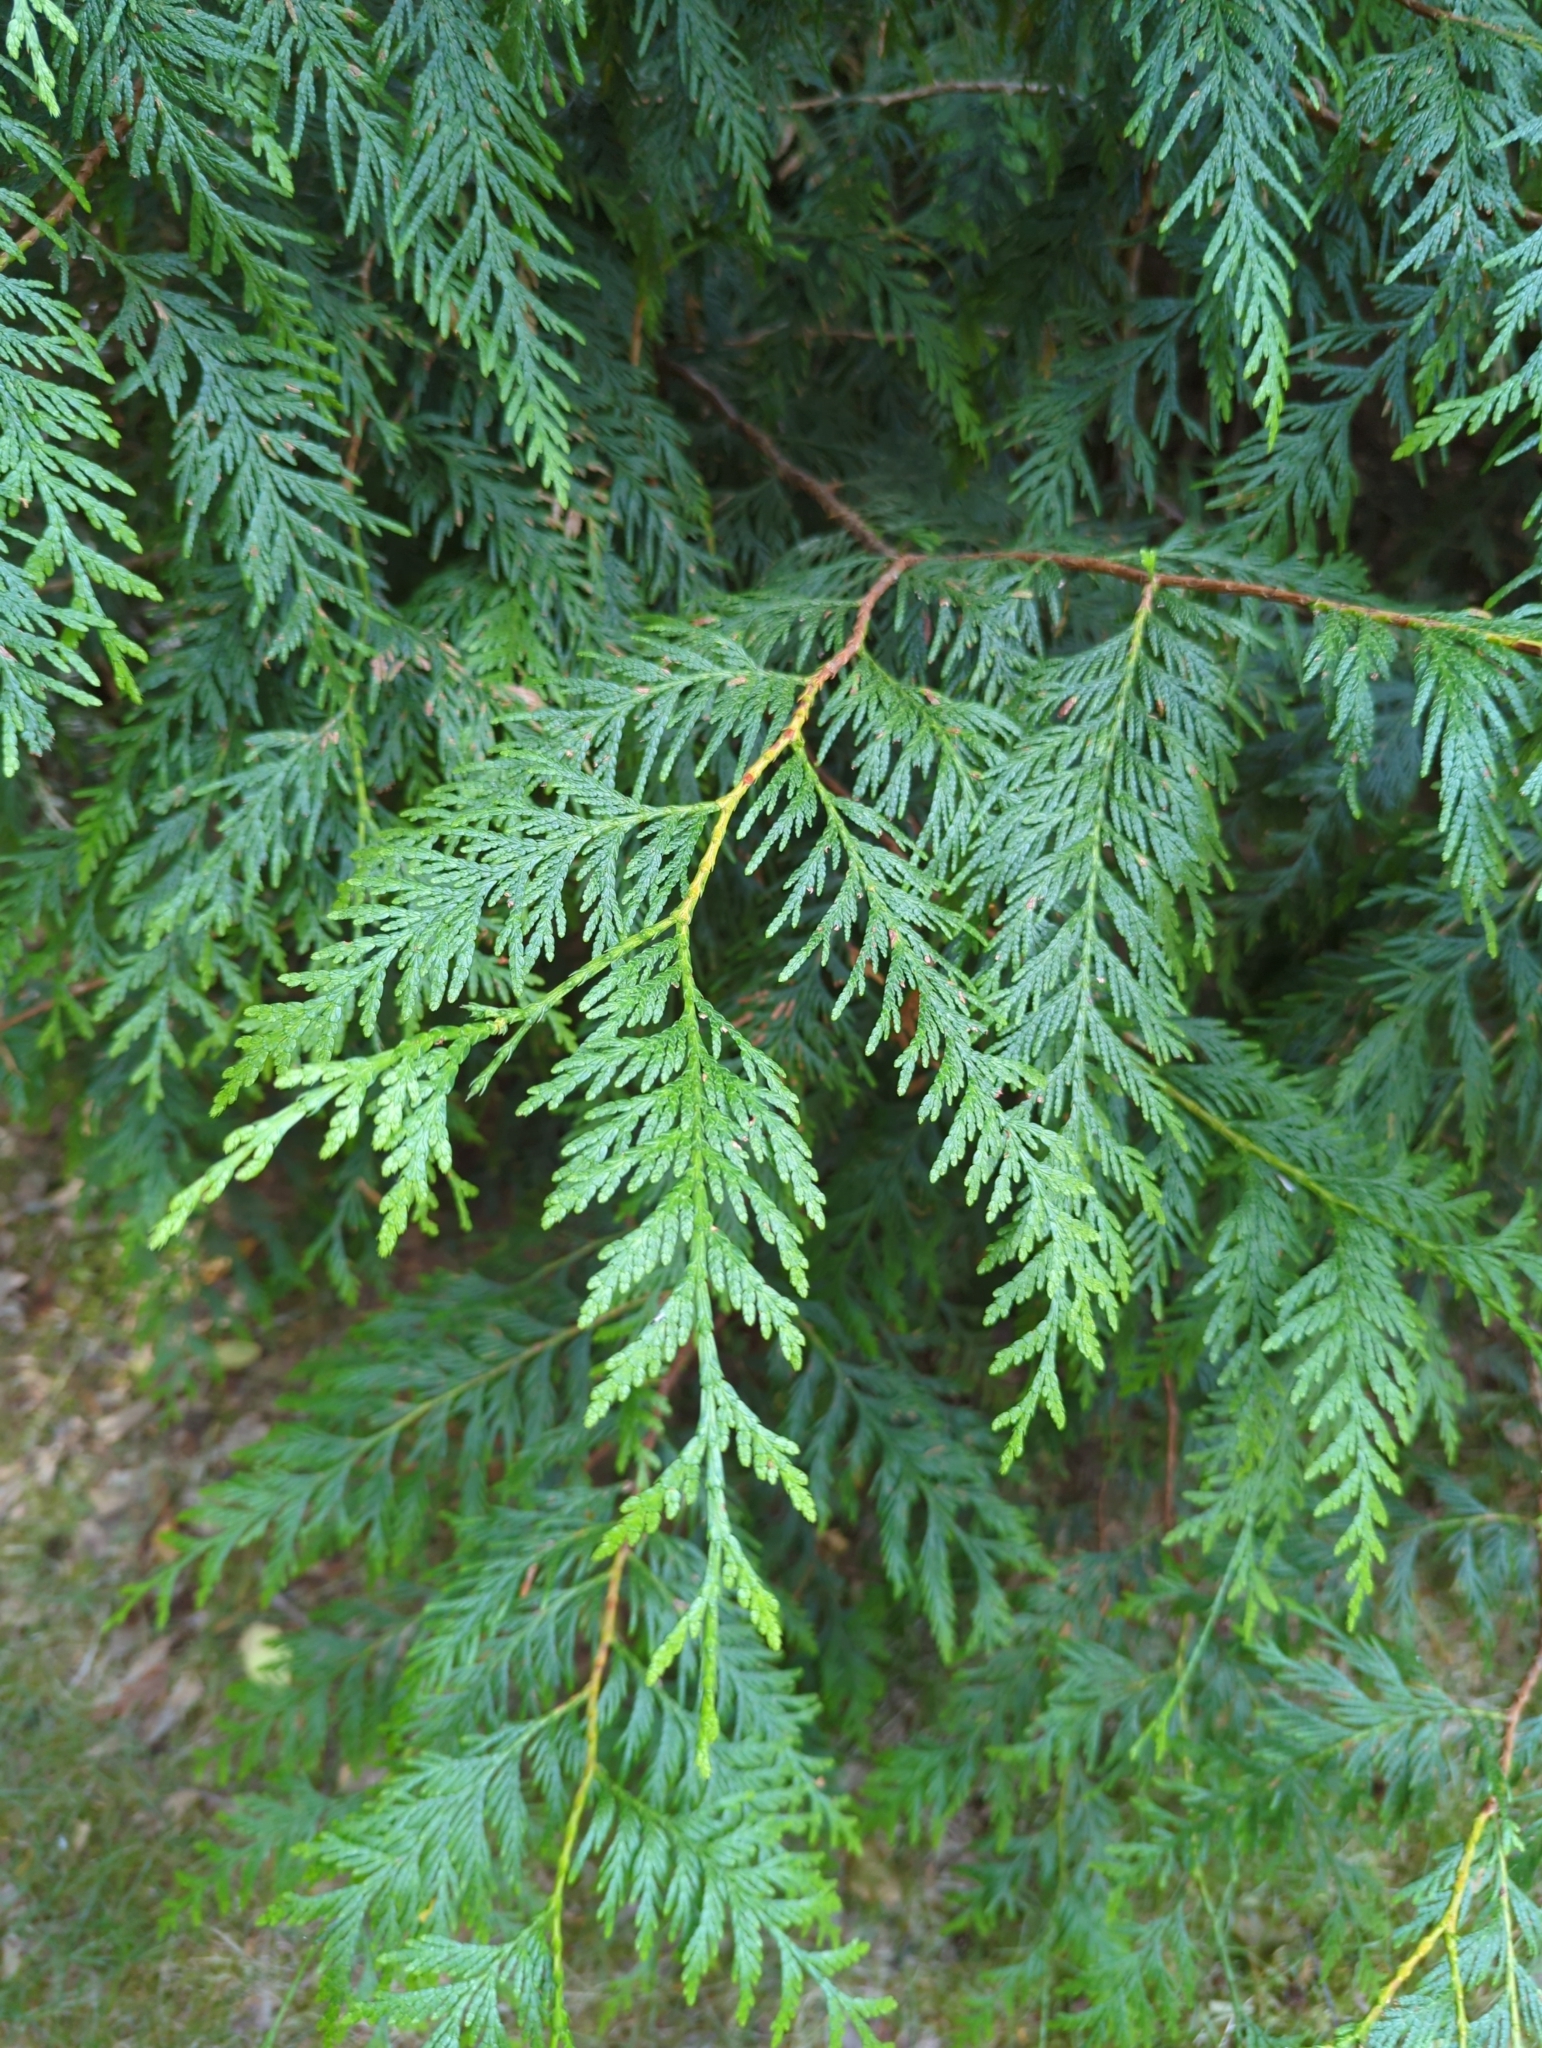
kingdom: Plantae
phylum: Tracheophyta
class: Pinopsida
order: Pinales
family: Cupressaceae
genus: Thuja
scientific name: Thuja plicata
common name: Western red-cedar
